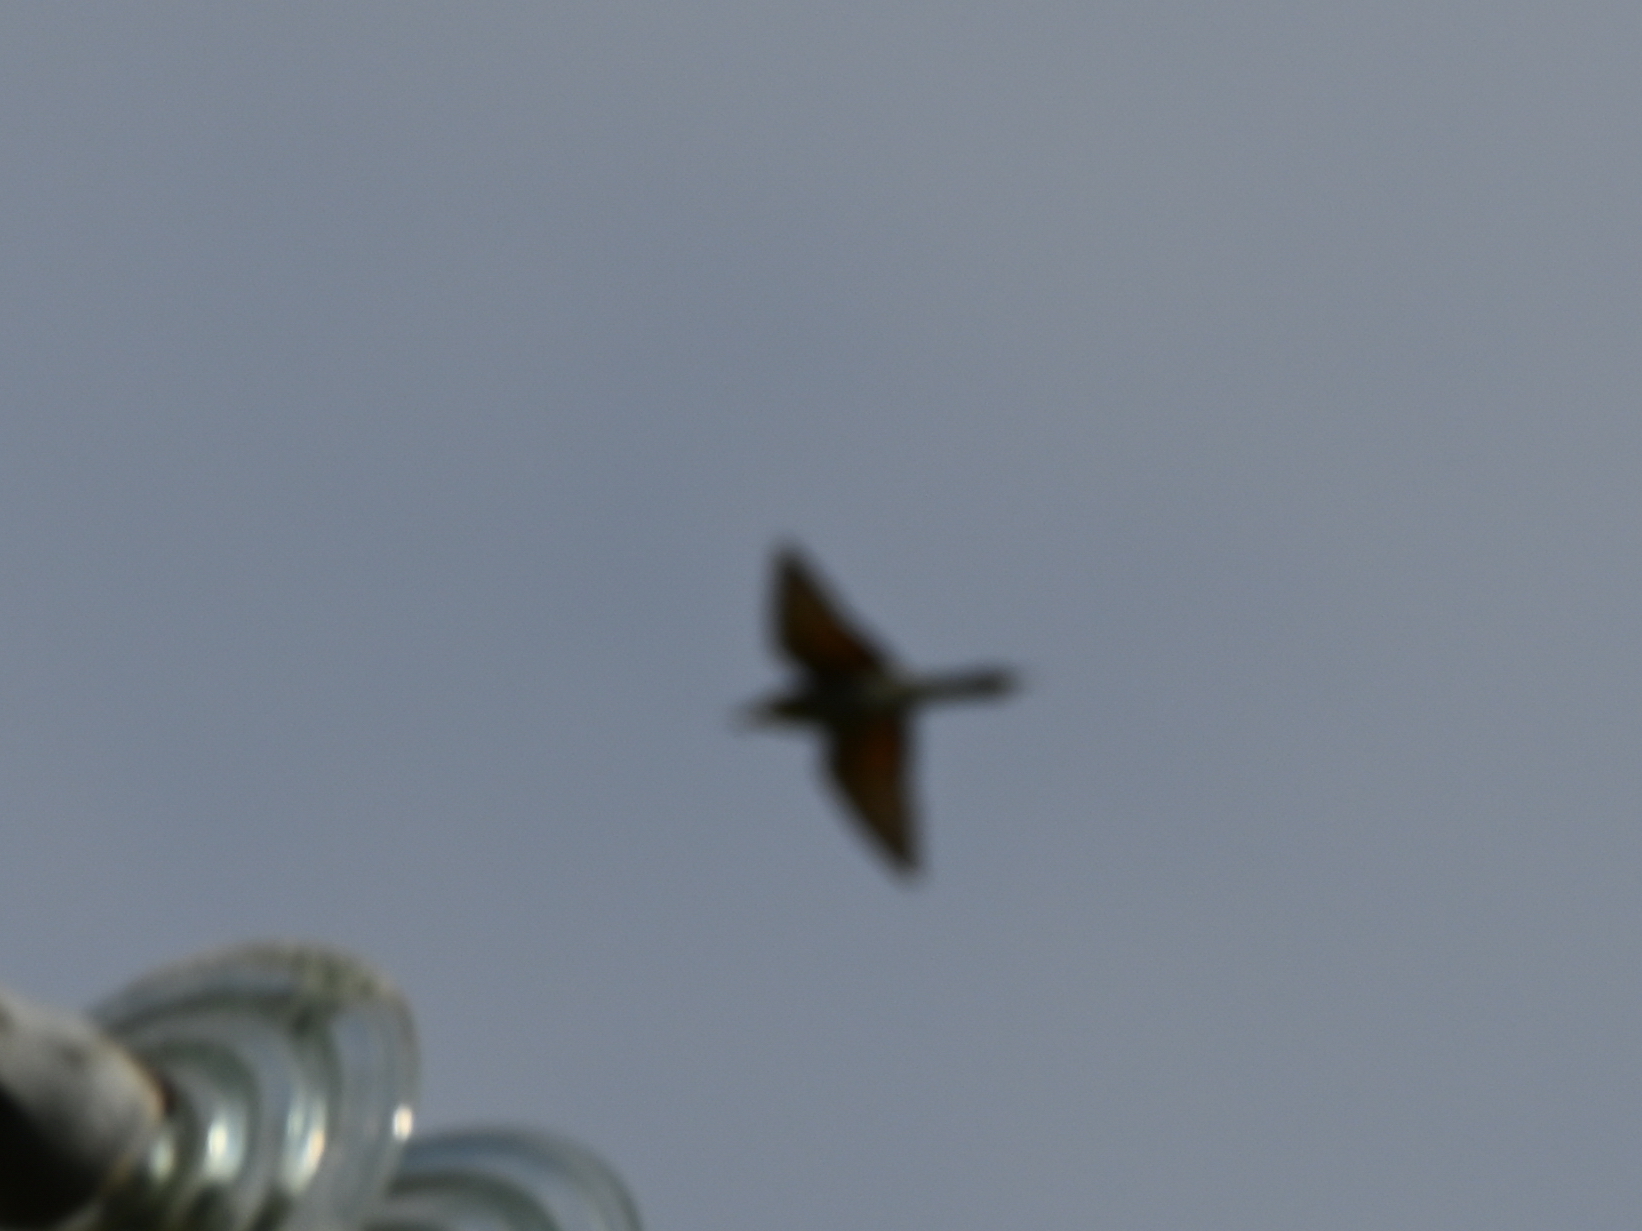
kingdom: Animalia
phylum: Chordata
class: Aves
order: Coraciiformes
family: Meropidae
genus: Merops
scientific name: Merops apiaster
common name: European bee-eater
